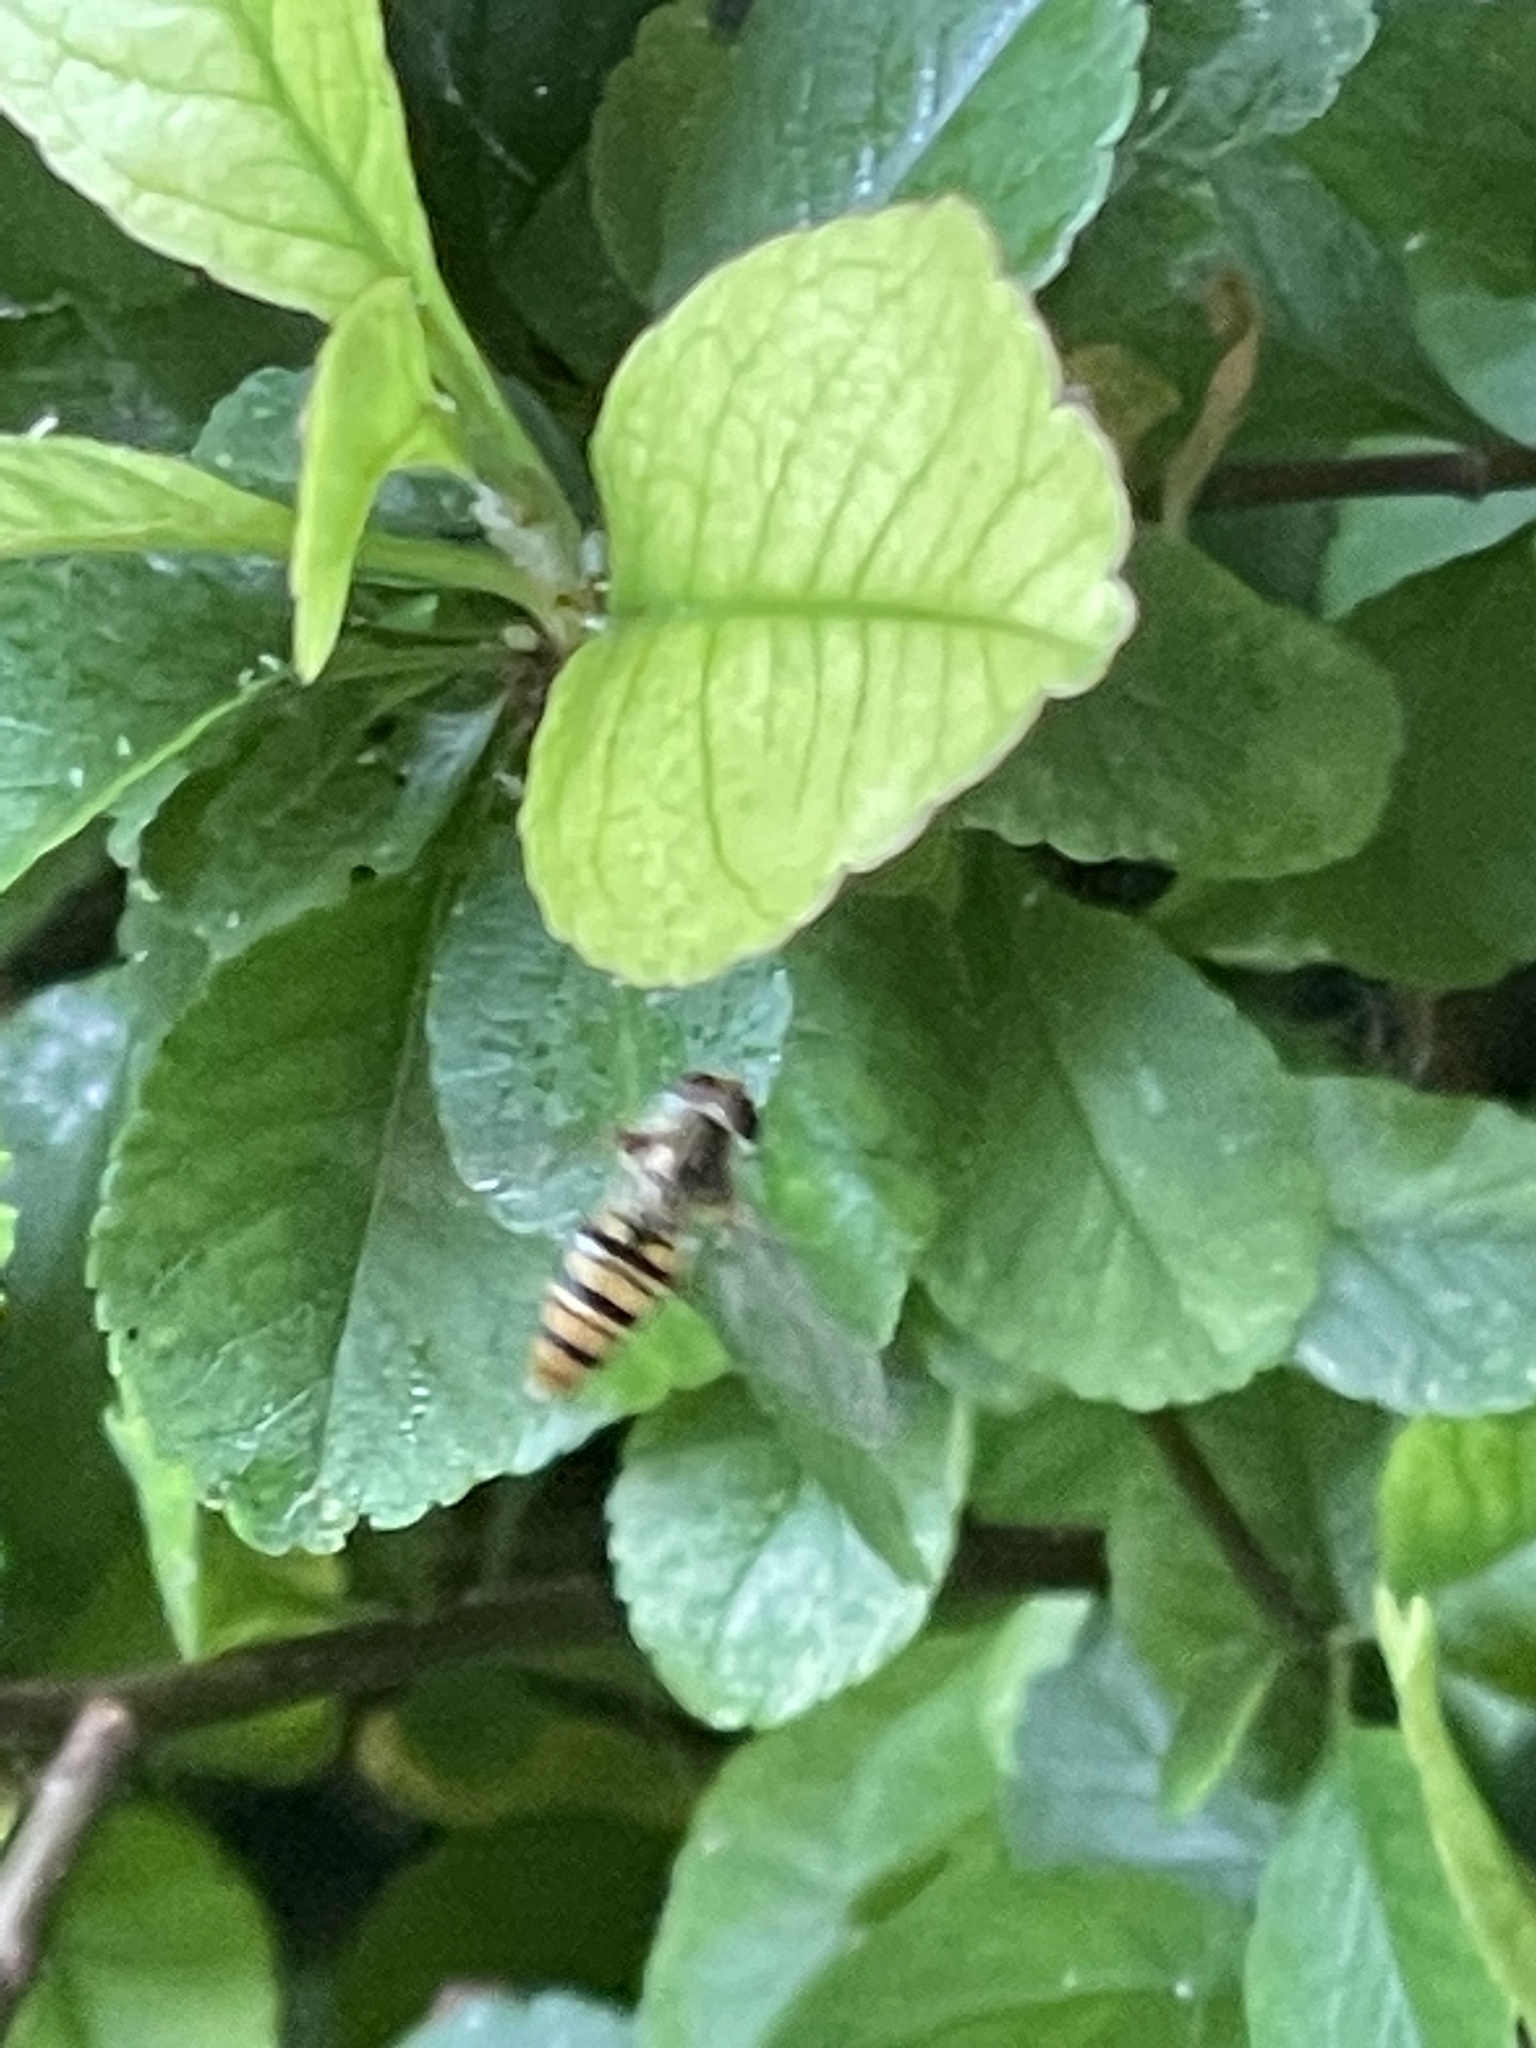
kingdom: Animalia
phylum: Arthropoda
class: Insecta
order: Diptera
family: Syrphidae
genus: Episyrphus
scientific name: Episyrphus balteatus
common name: Marmalade hoverfly
